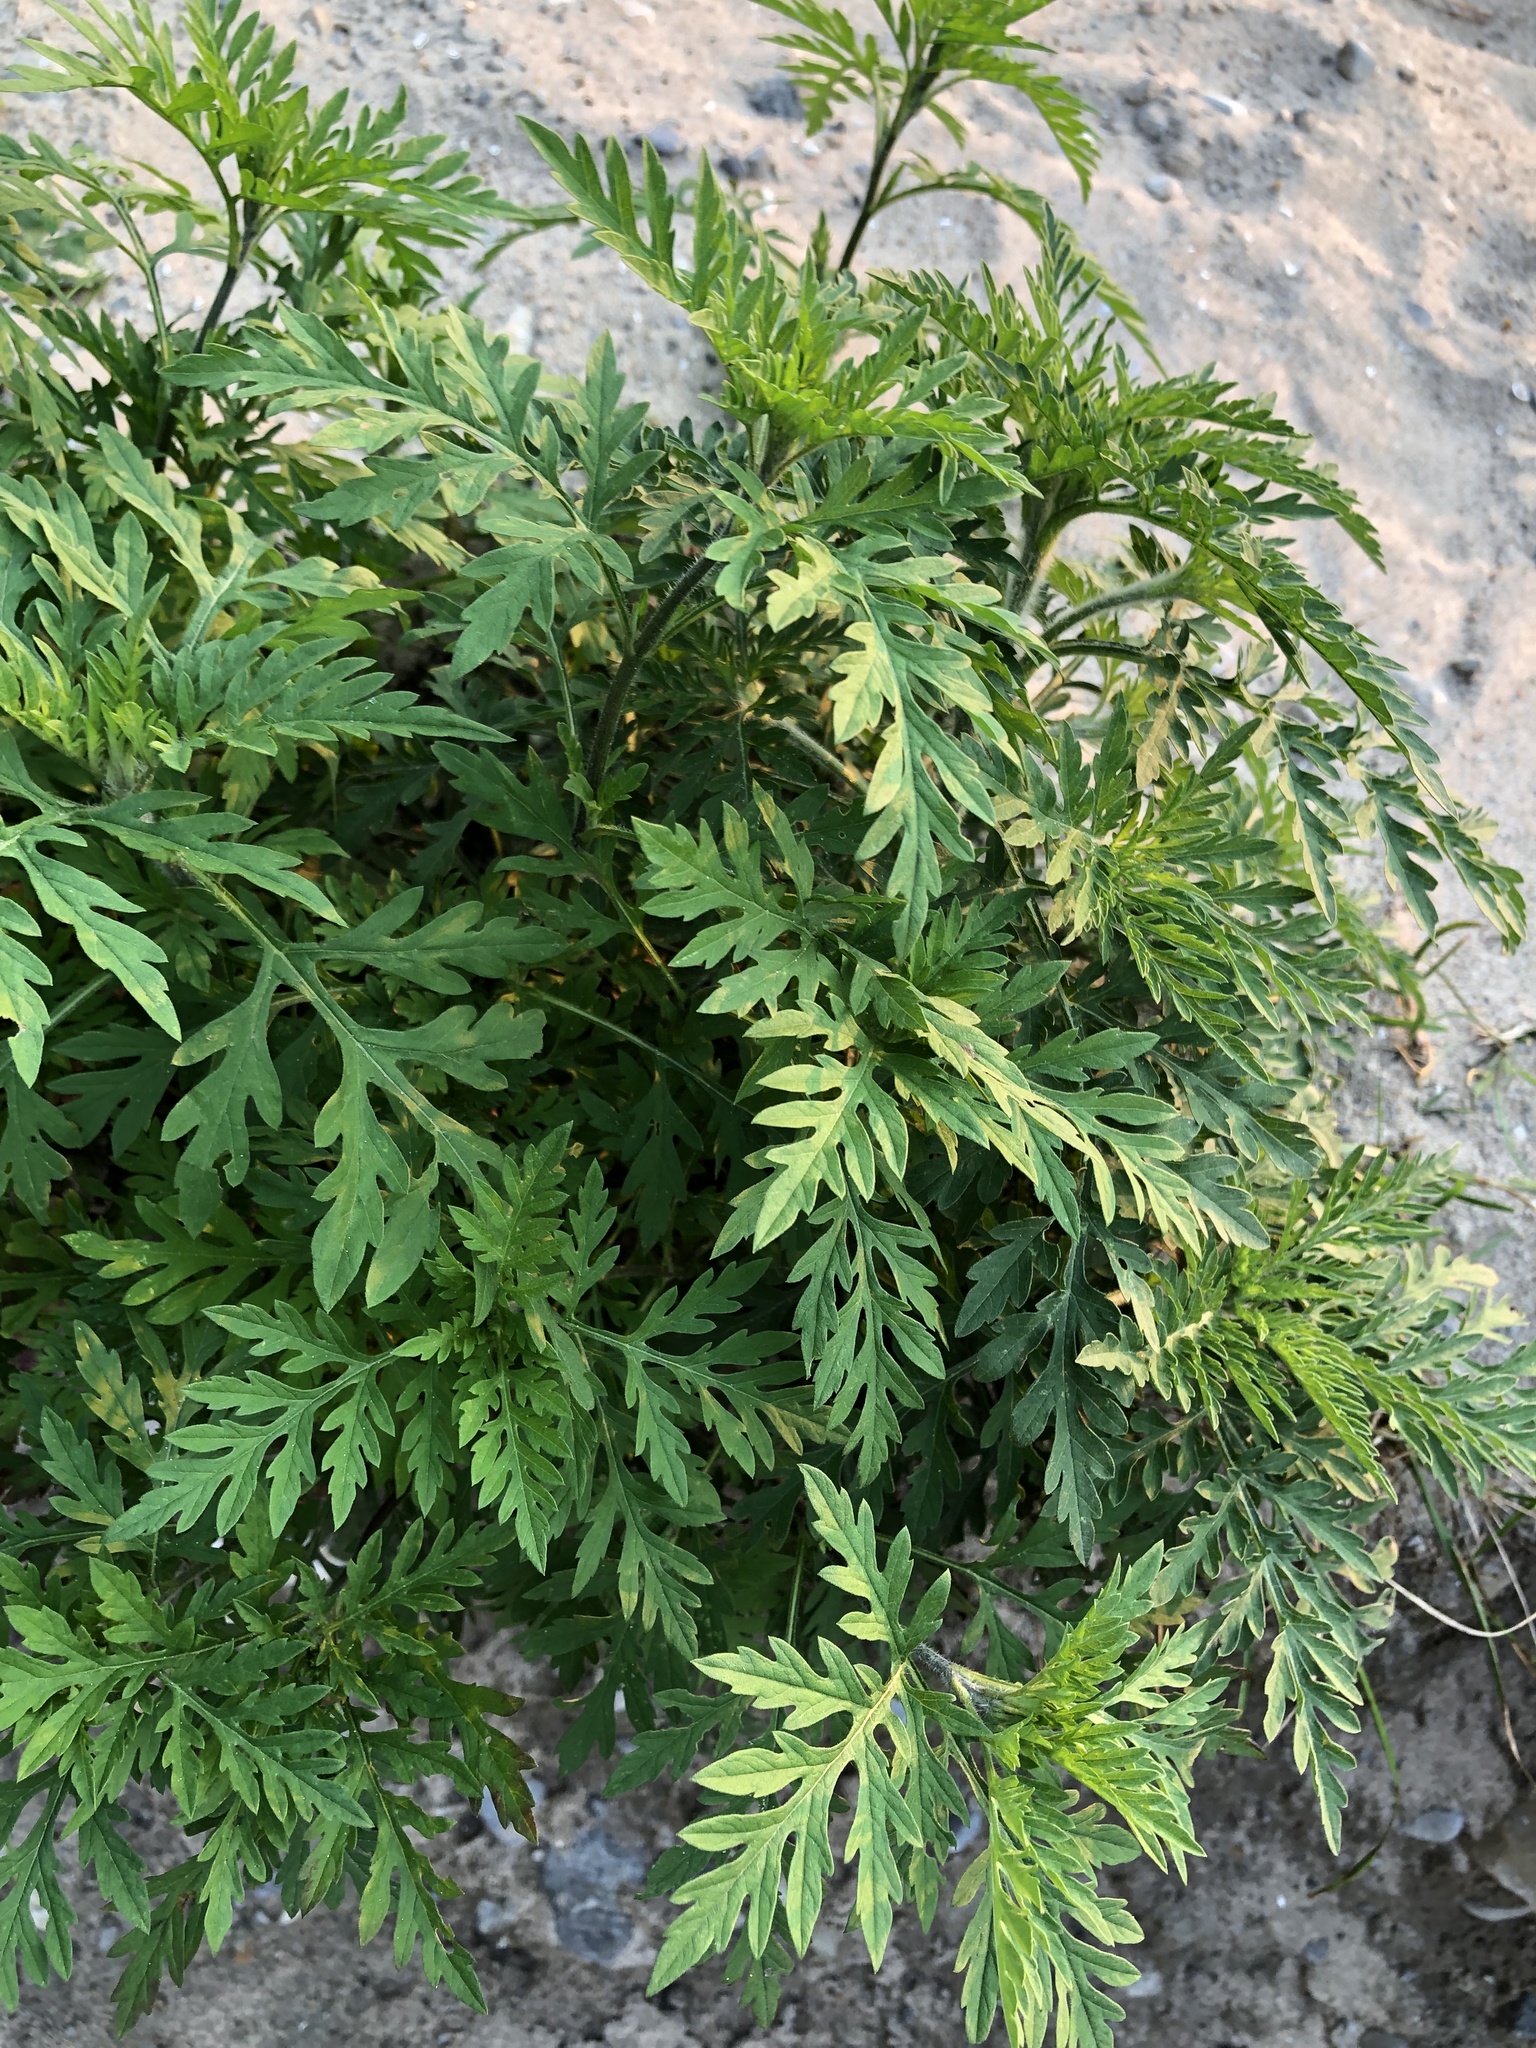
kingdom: Plantae
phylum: Tracheophyta
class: Magnoliopsida
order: Asterales
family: Asteraceae
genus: Ambrosia
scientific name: Ambrosia artemisiifolia
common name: Annual ragweed
